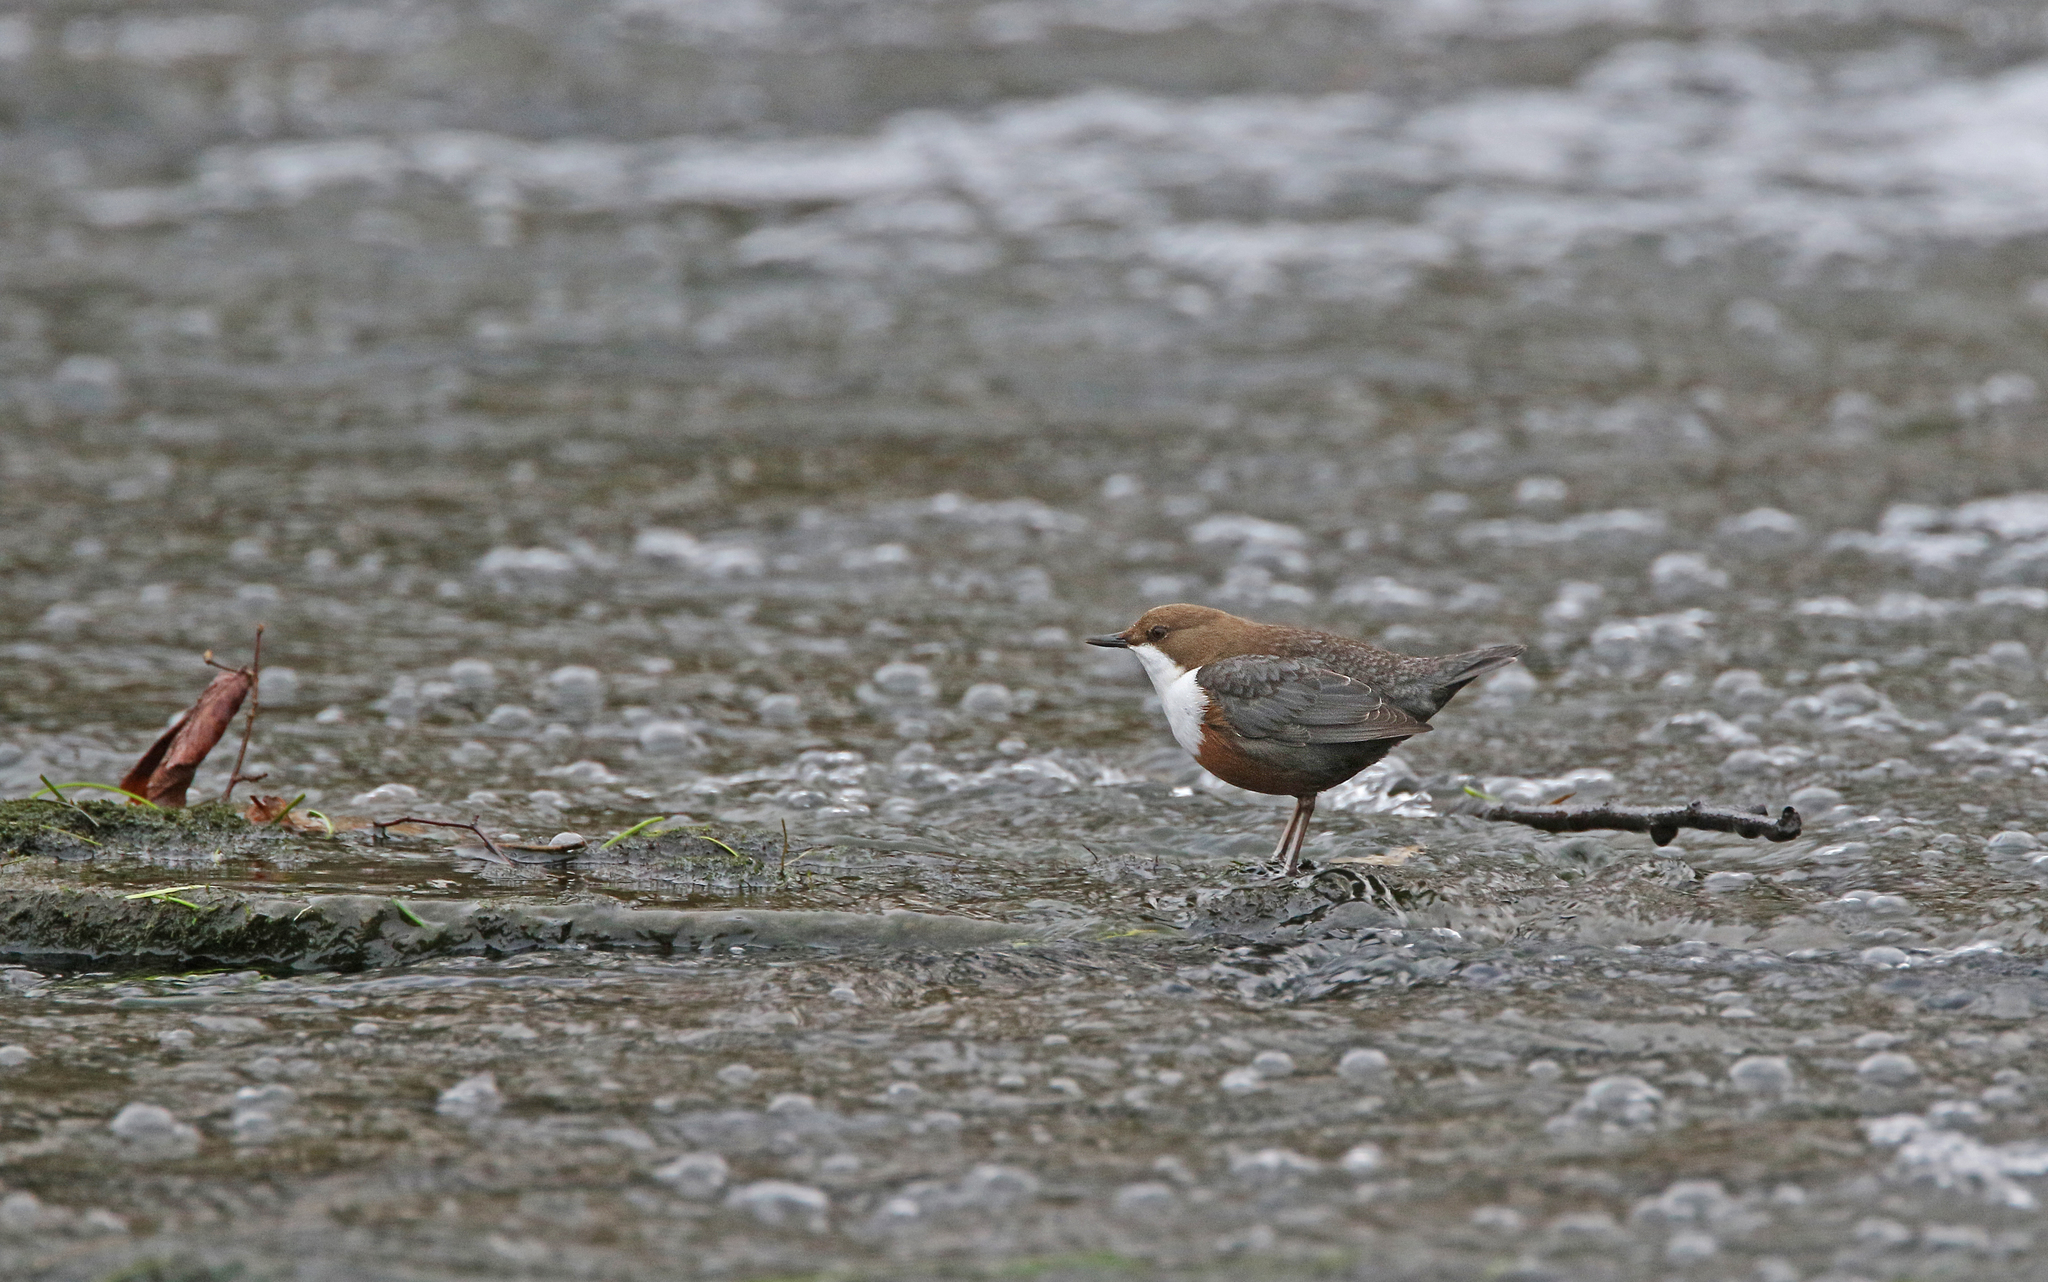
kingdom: Animalia
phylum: Chordata
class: Aves
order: Passeriformes
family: Cinclidae
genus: Cinclus
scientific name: Cinclus cinclus
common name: White-throated dipper
